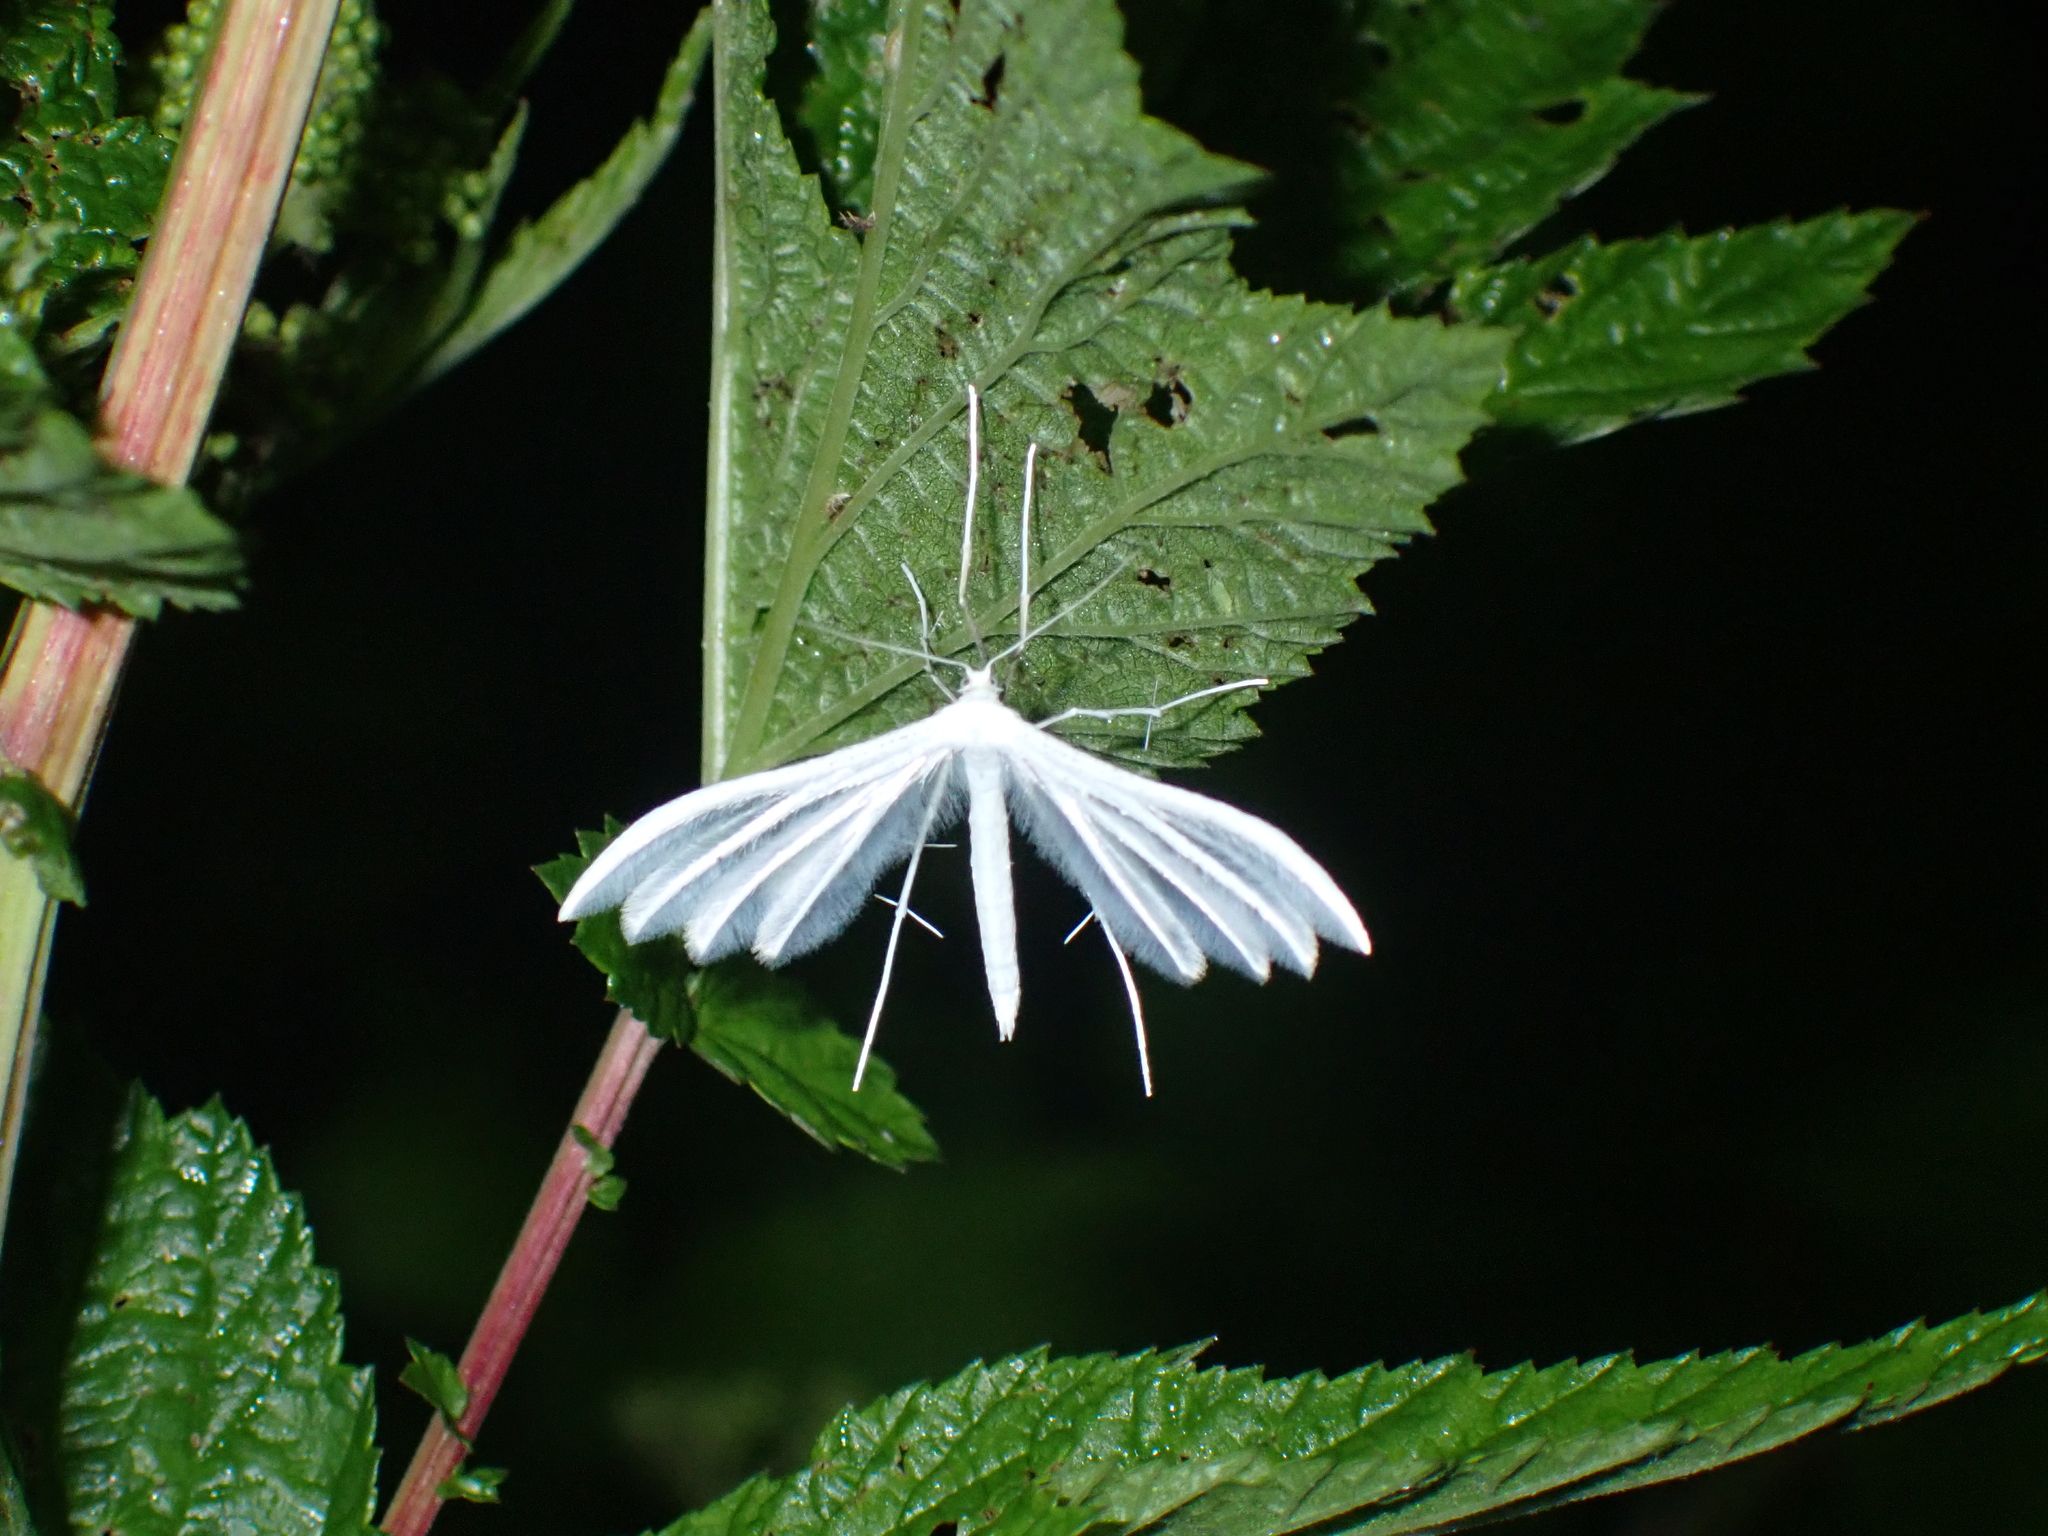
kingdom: Animalia
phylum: Arthropoda
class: Insecta
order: Lepidoptera
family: Pterophoridae
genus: Pterophorus
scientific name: Pterophorus pentadactyla
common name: White plume moth
